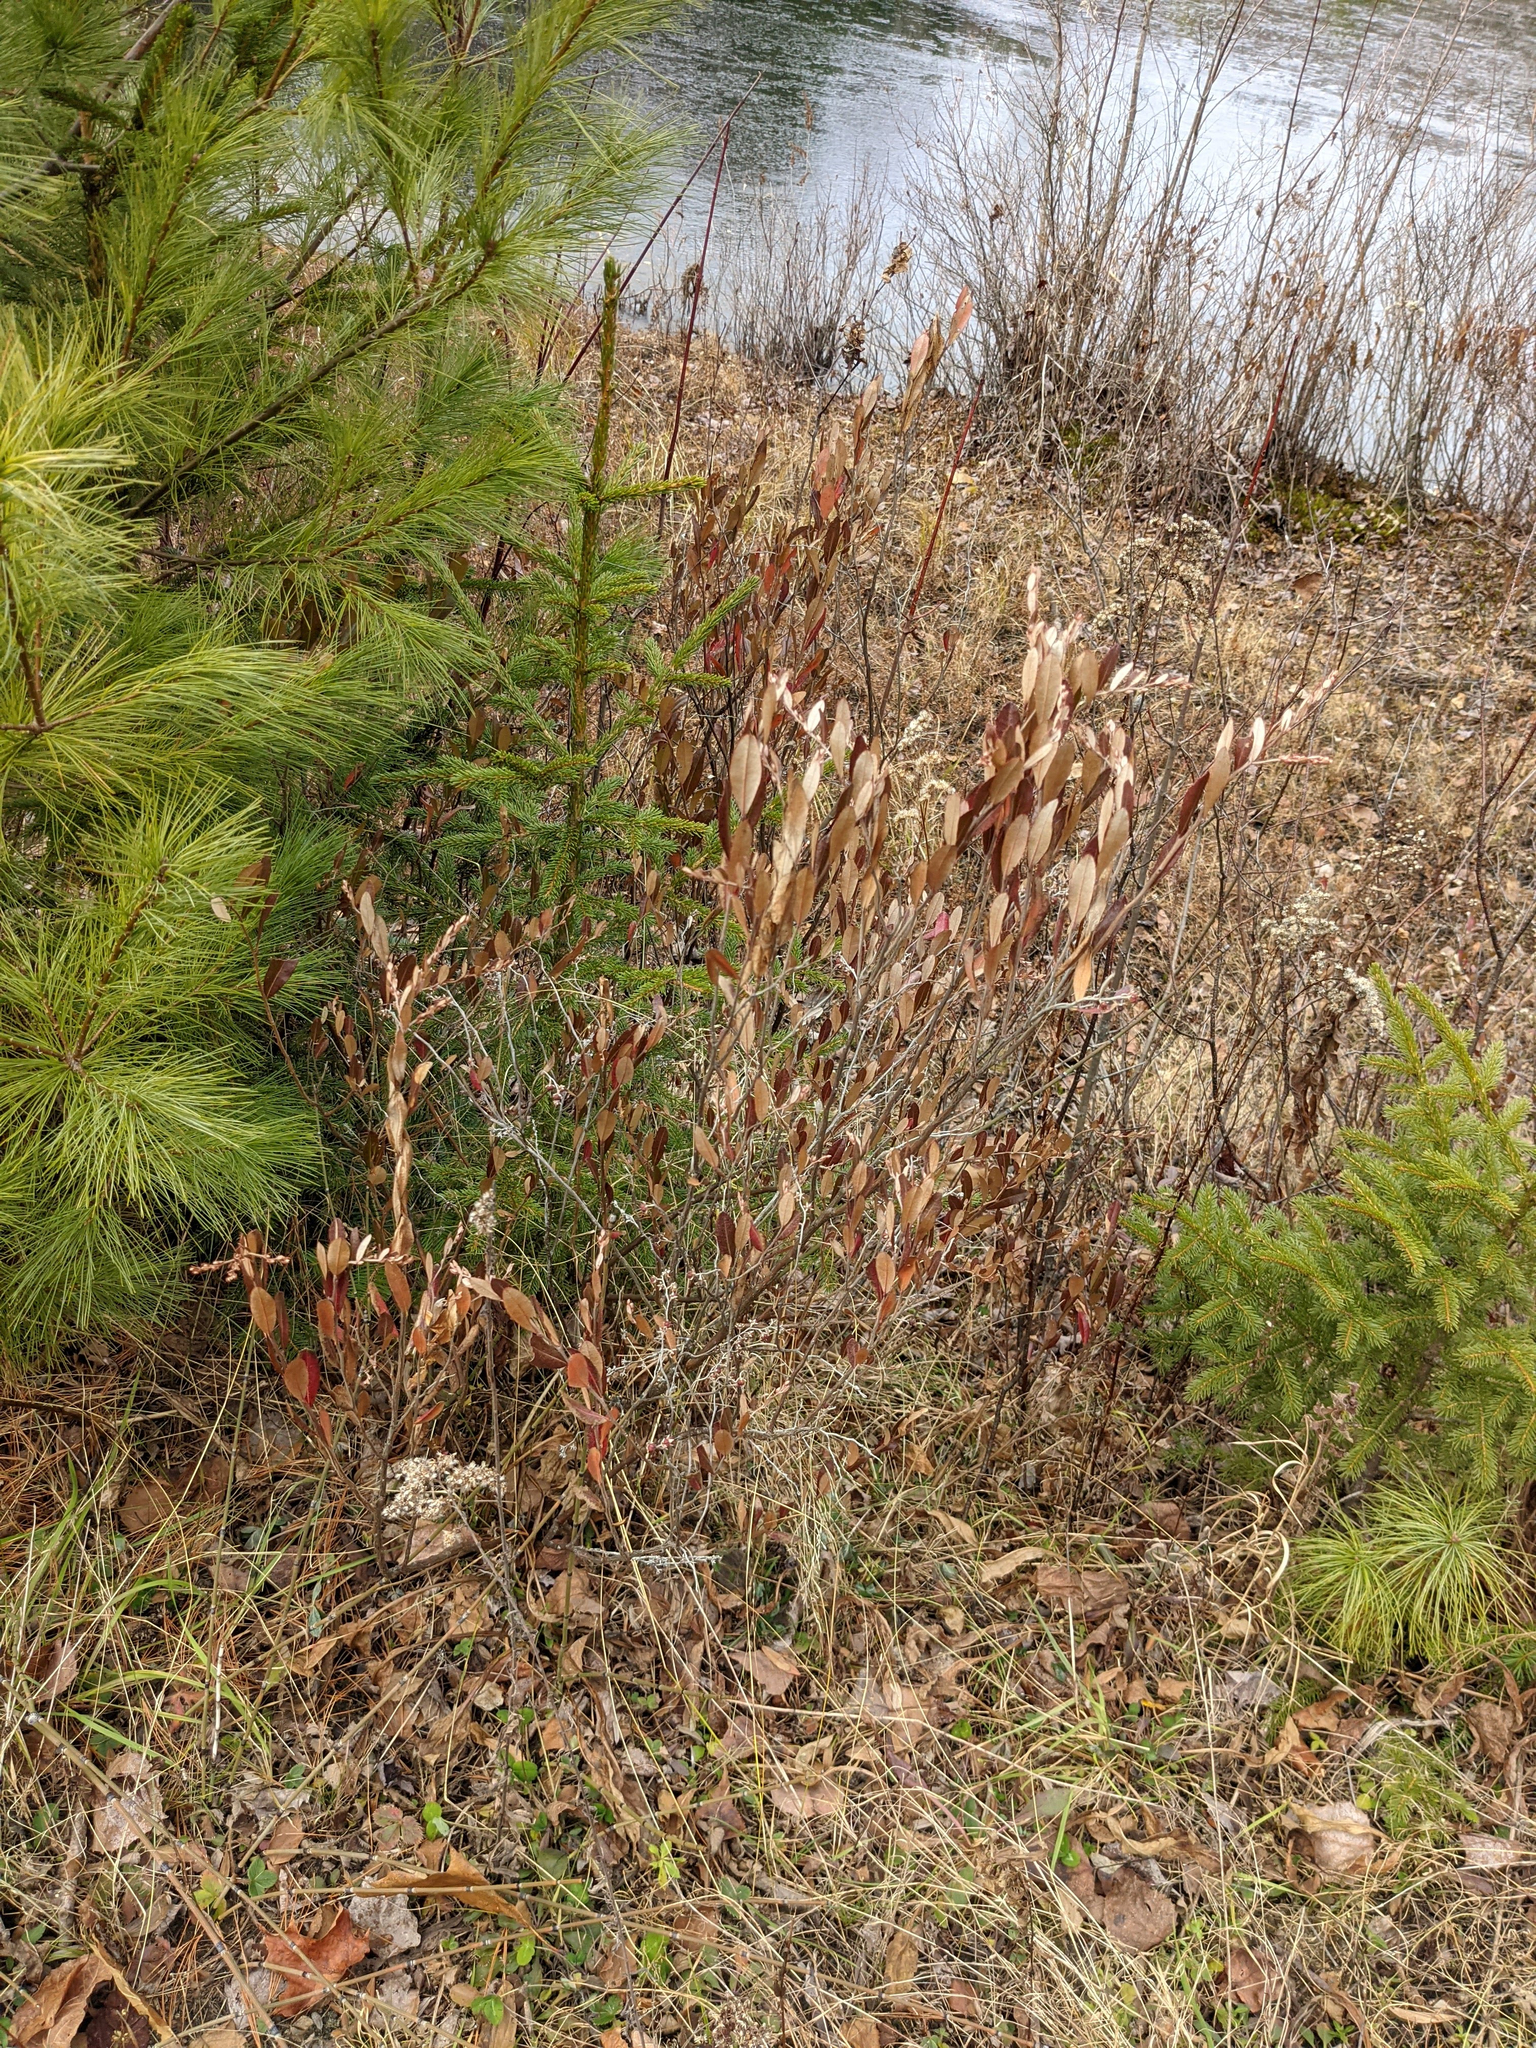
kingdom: Plantae
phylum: Tracheophyta
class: Magnoliopsida
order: Ericales
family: Ericaceae
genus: Chamaedaphne
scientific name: Chamaedaphne calyculata
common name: Leatherleaf
